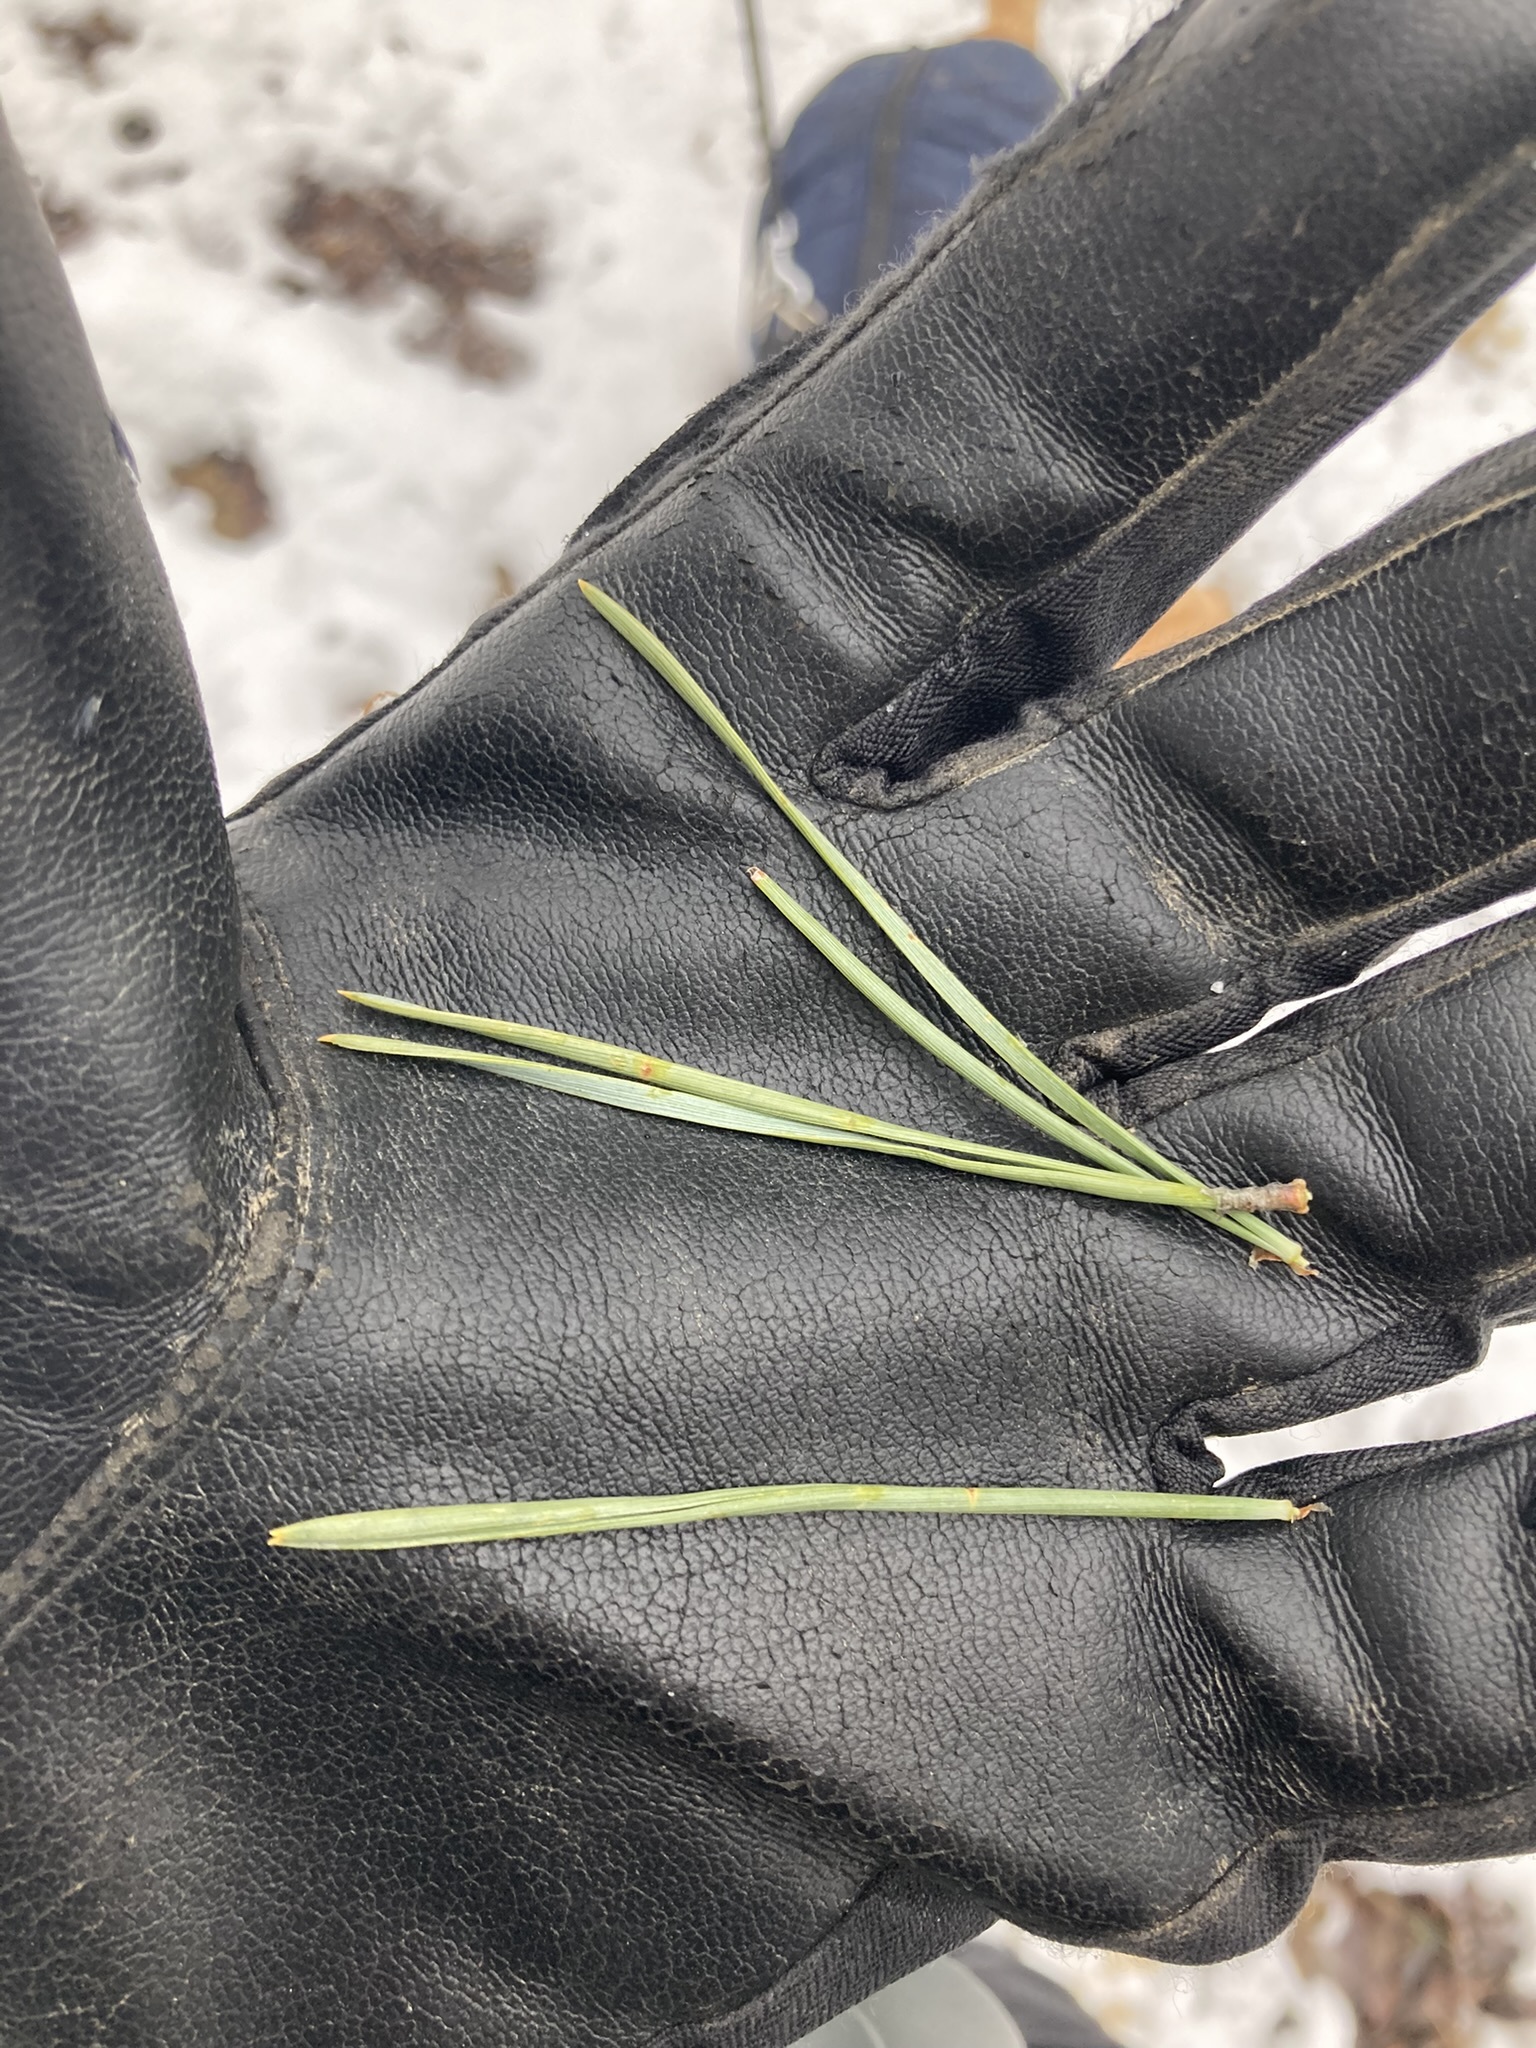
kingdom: Plantae
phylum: Tracheophyta
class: Pinopsida
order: Pinales
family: Pinaceae
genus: Pinus
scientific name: Pinus sylvestris
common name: Scots pine
